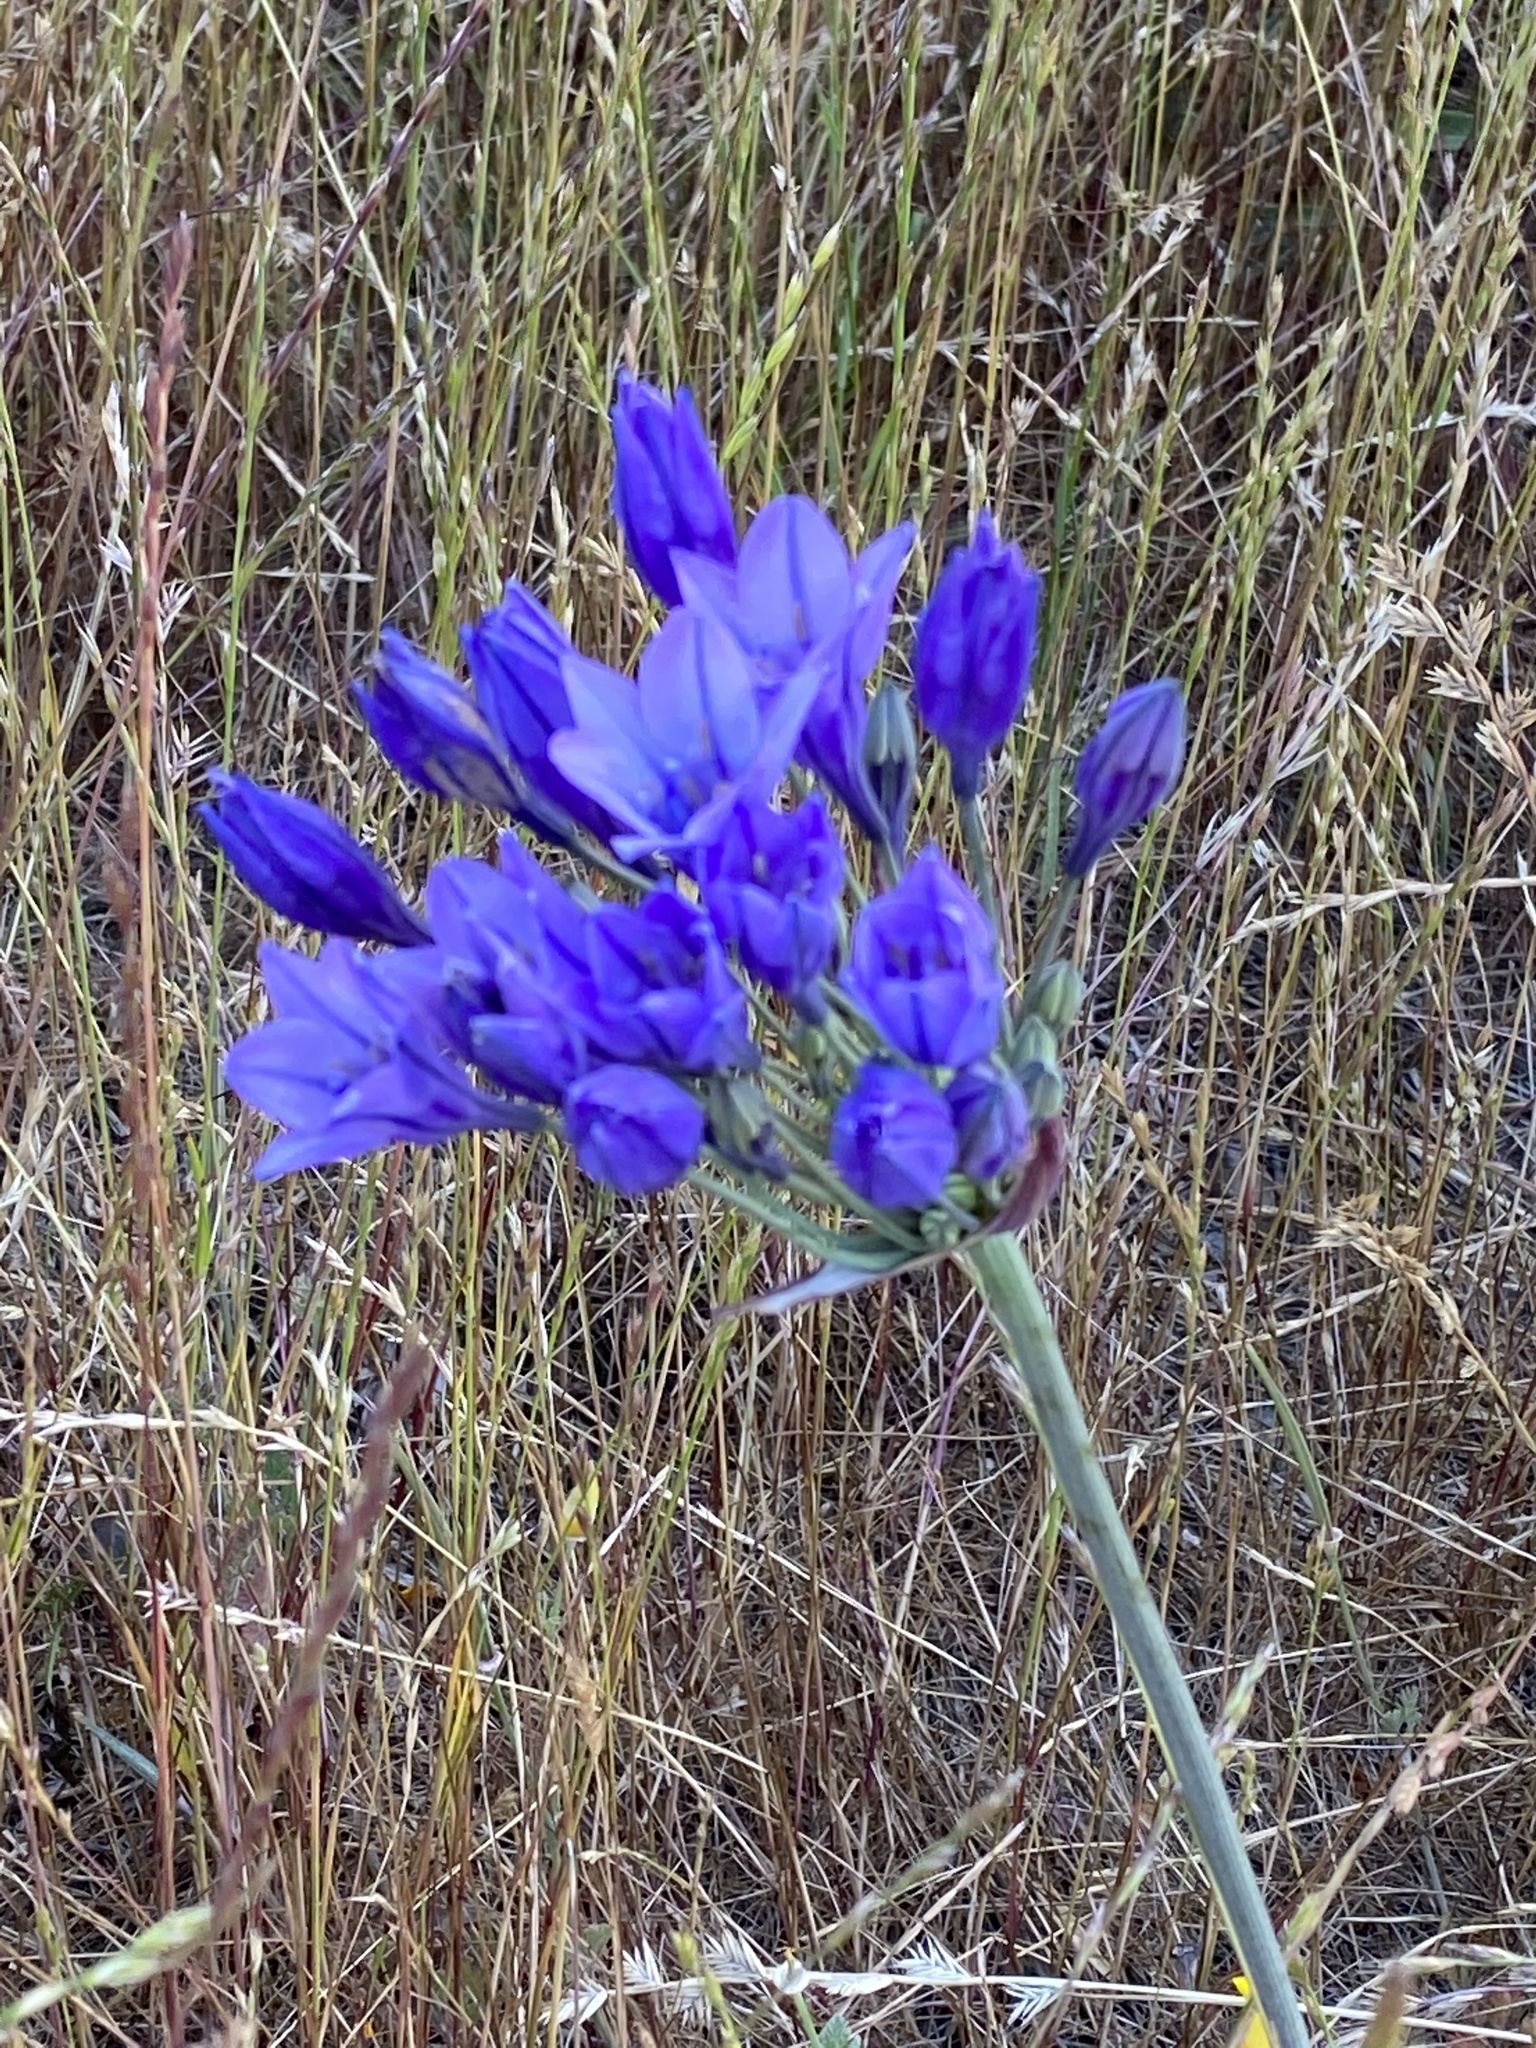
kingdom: Plantae
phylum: Tracheophyta
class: Liliopsida
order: Asparagales
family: Asparagaceae
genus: Triteleia
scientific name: Triteleia laxa
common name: Triplet-lily
